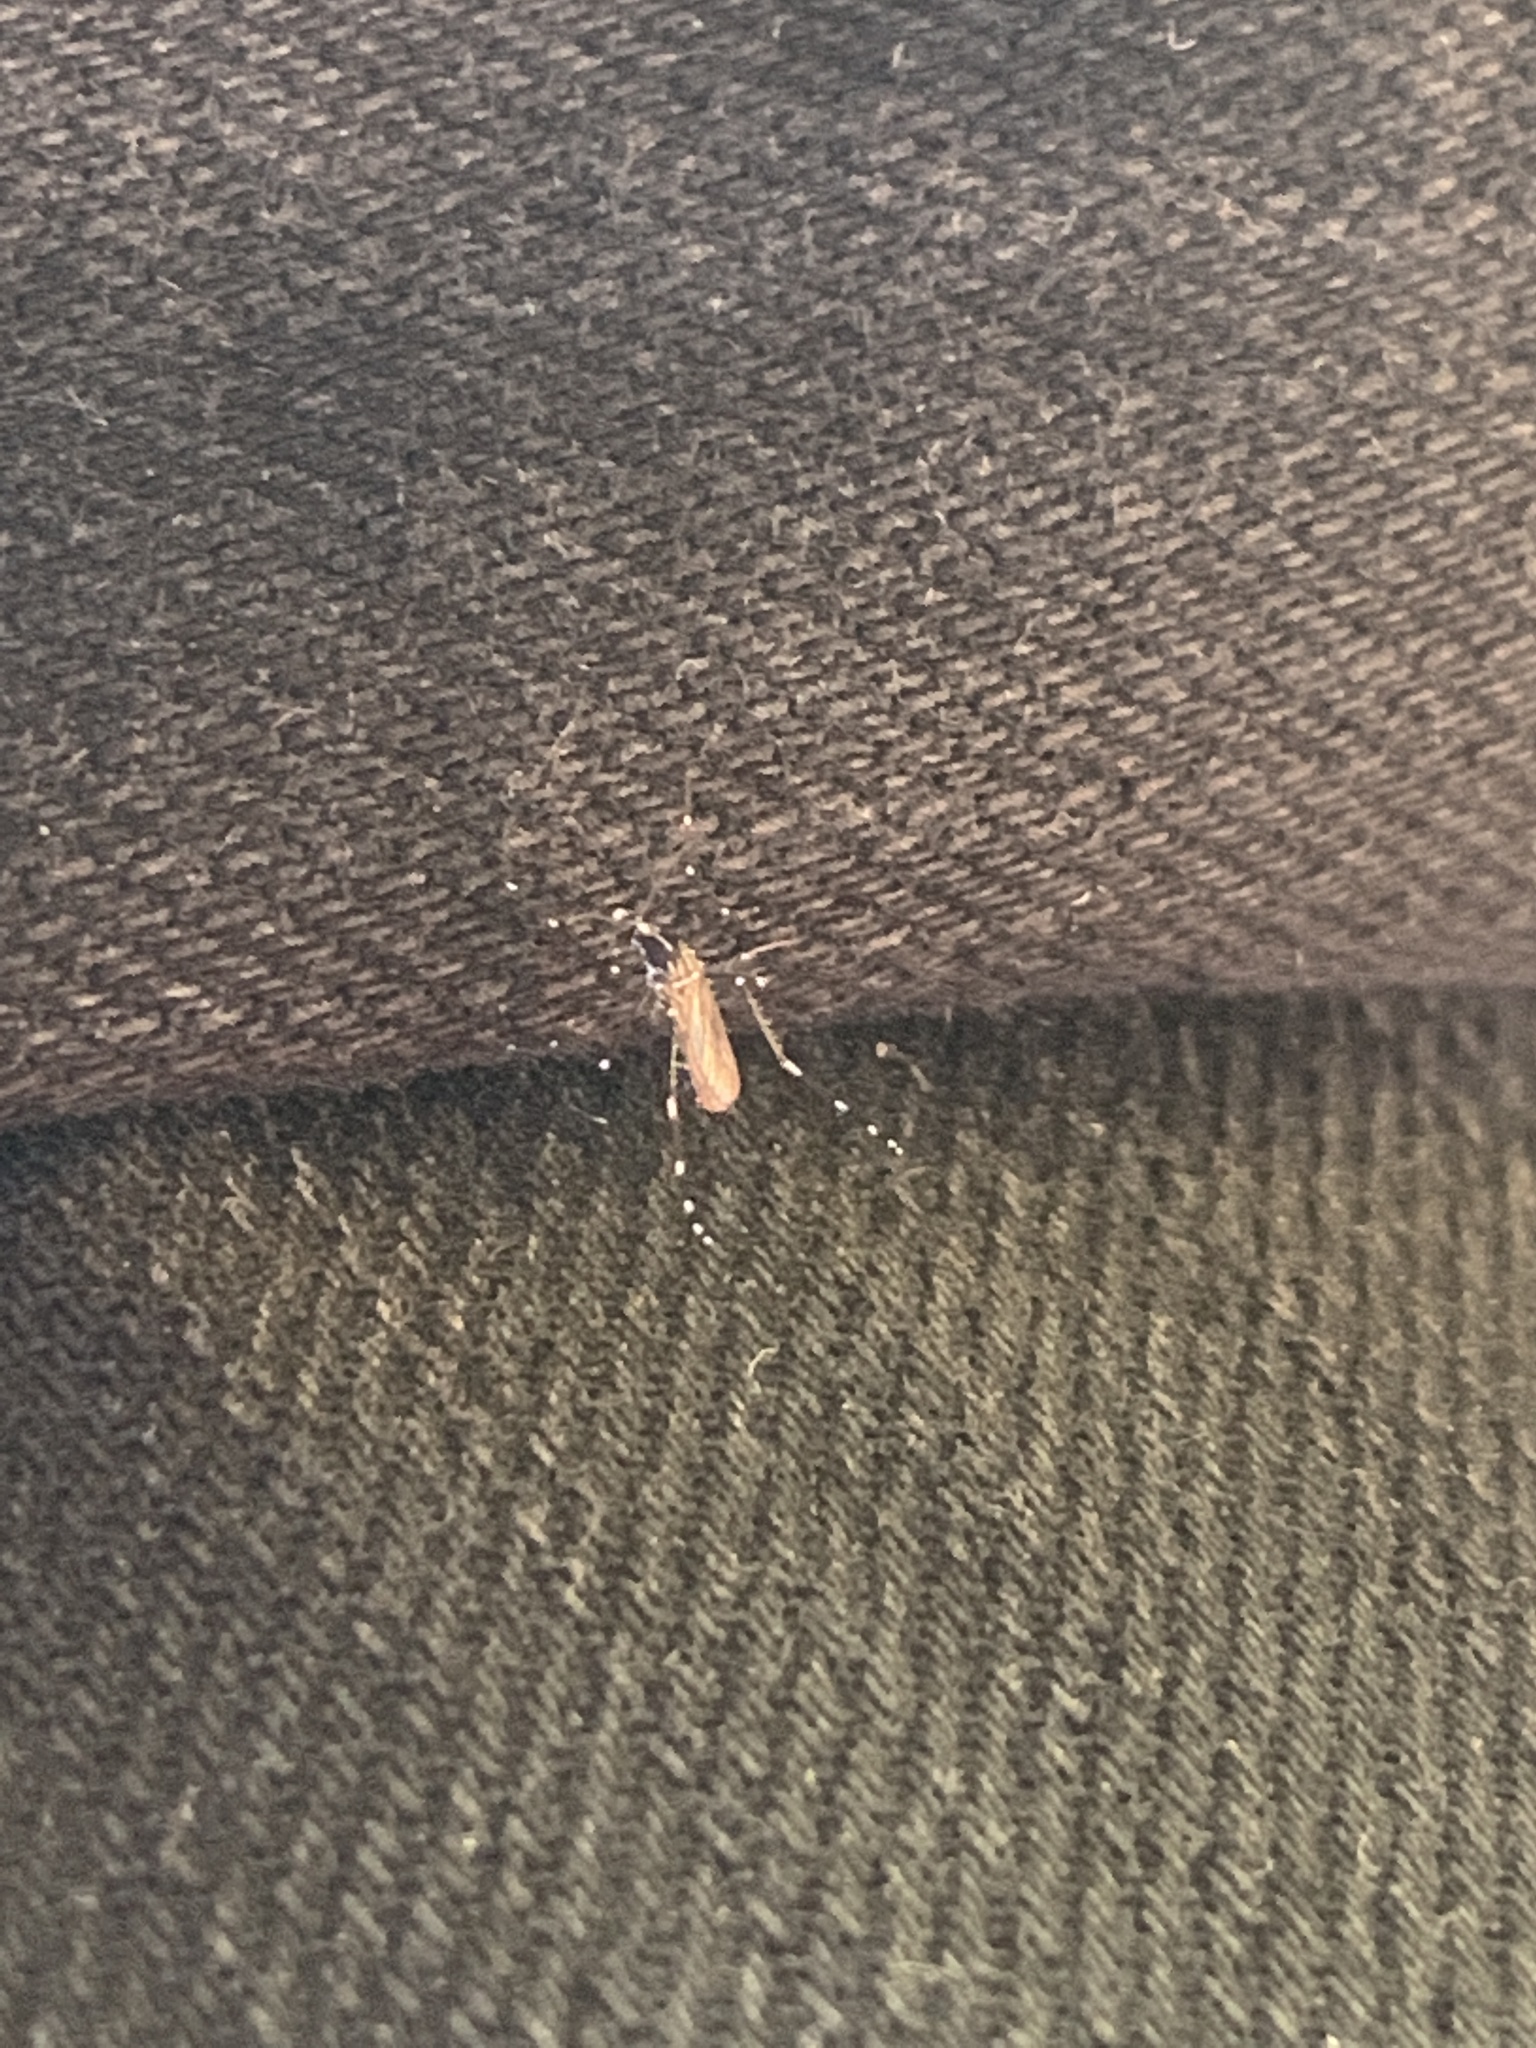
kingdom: Animalia
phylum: Arthropoda
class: Insecta
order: Diptera
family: Culicidae
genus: Aedes
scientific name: Aedes albopictus
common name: Tiger mosquito
